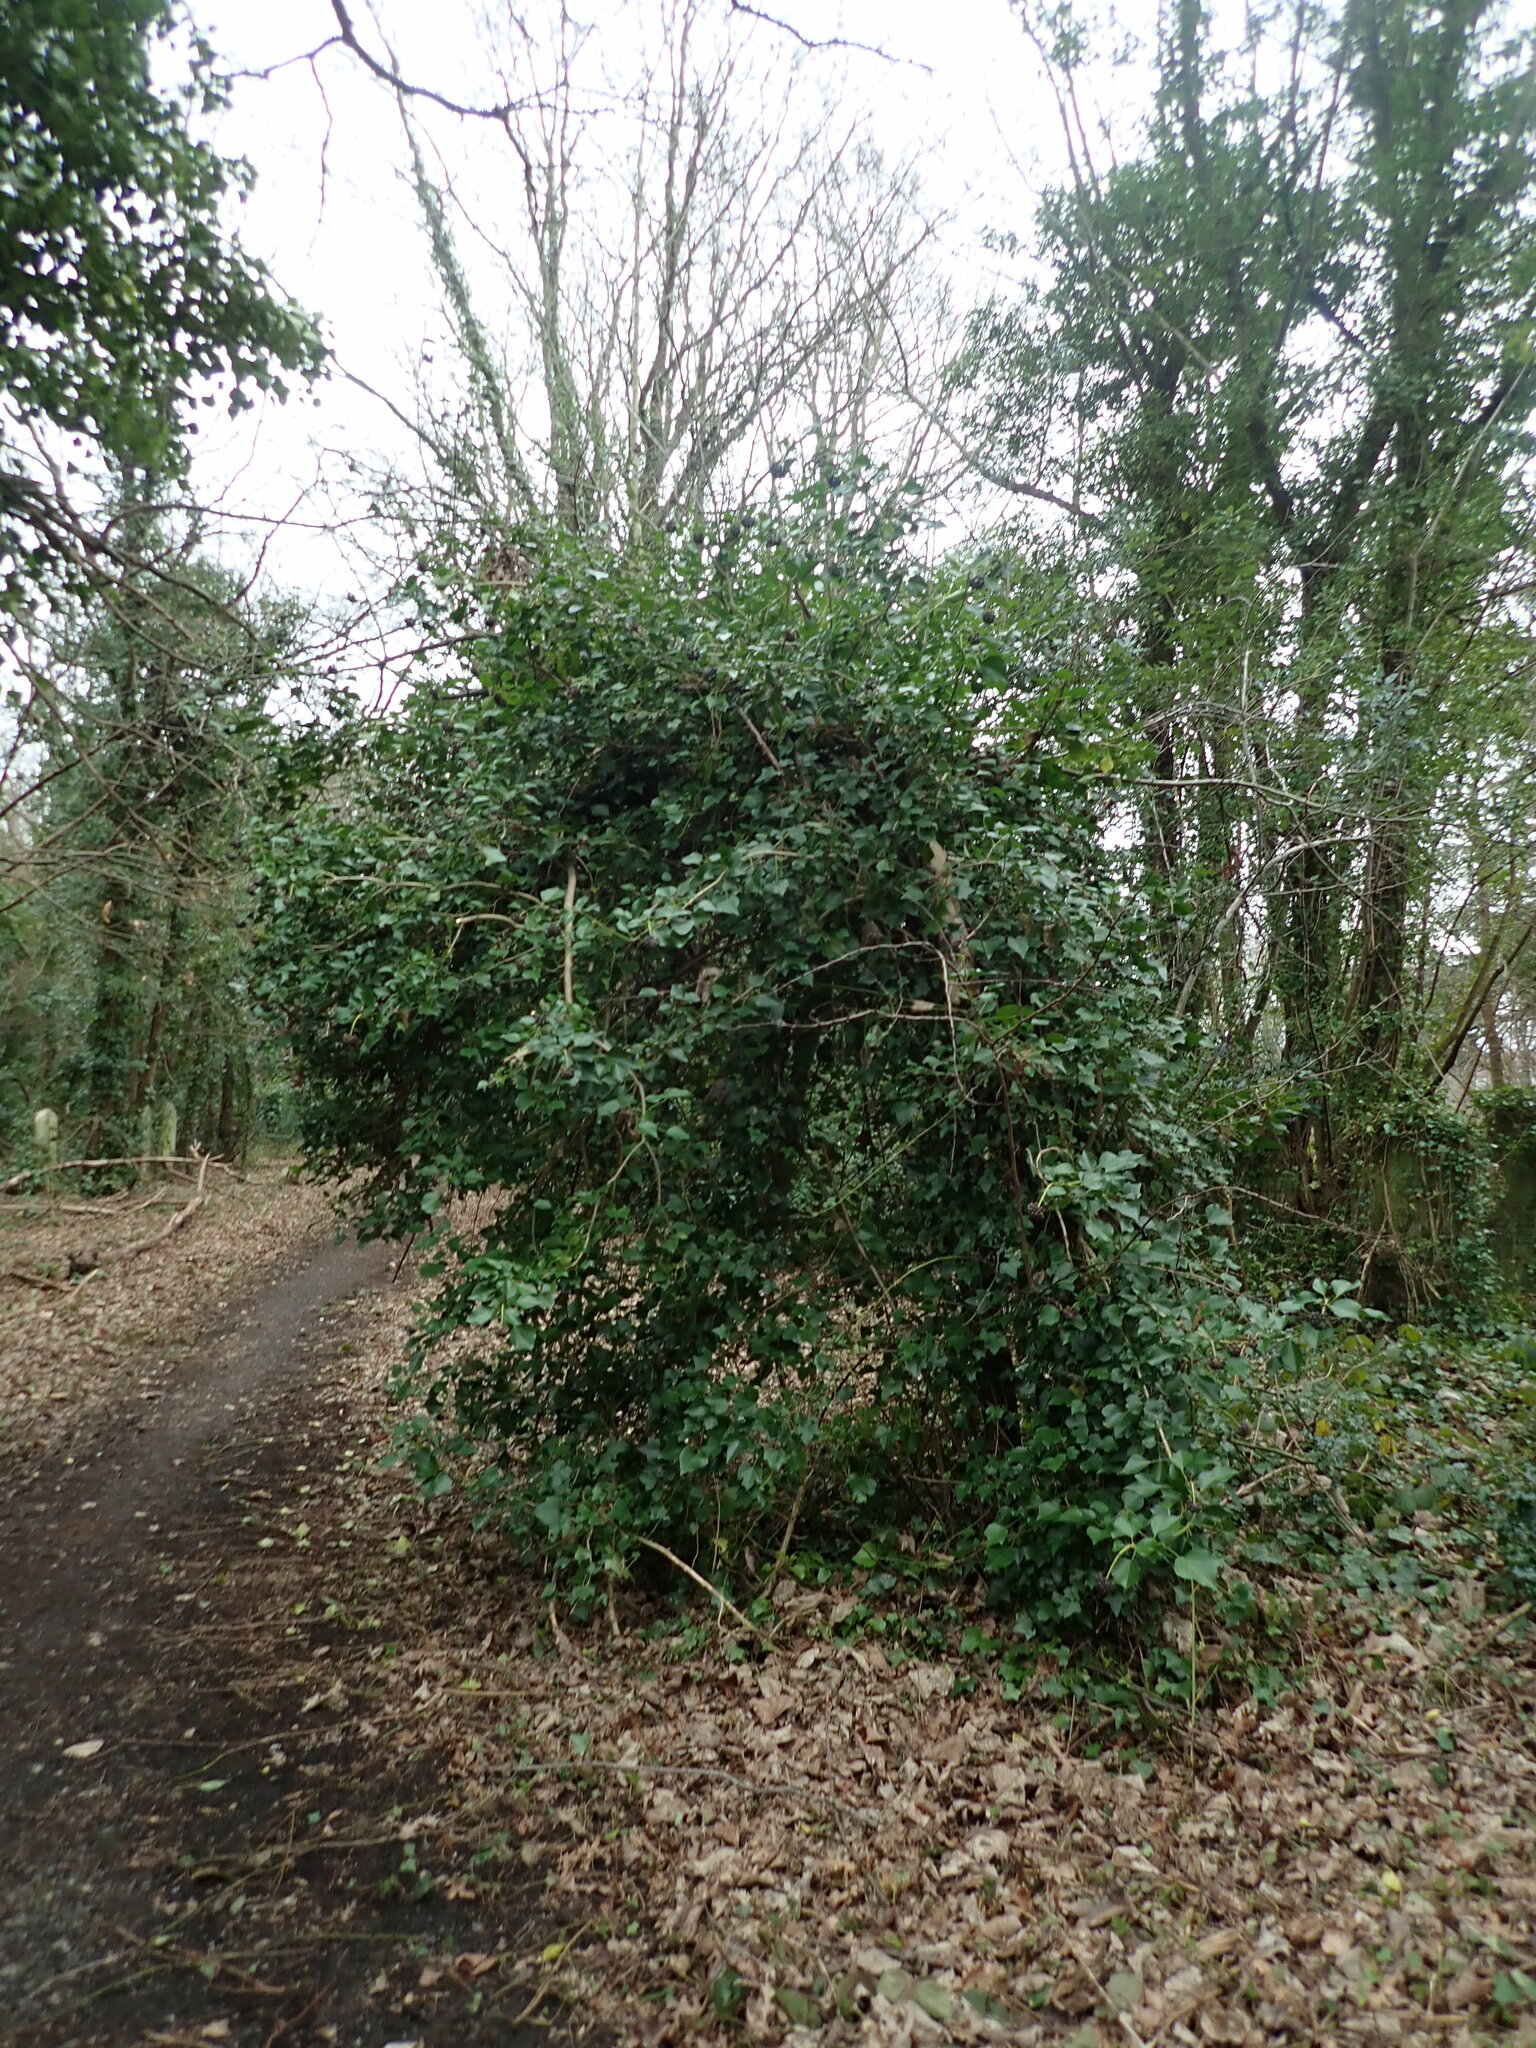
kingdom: Plantae
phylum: Tracheophyta
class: Magnoliopsida
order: Apiales
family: Araliaceae
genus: Hedera
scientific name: Hedera helix
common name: Ivy
